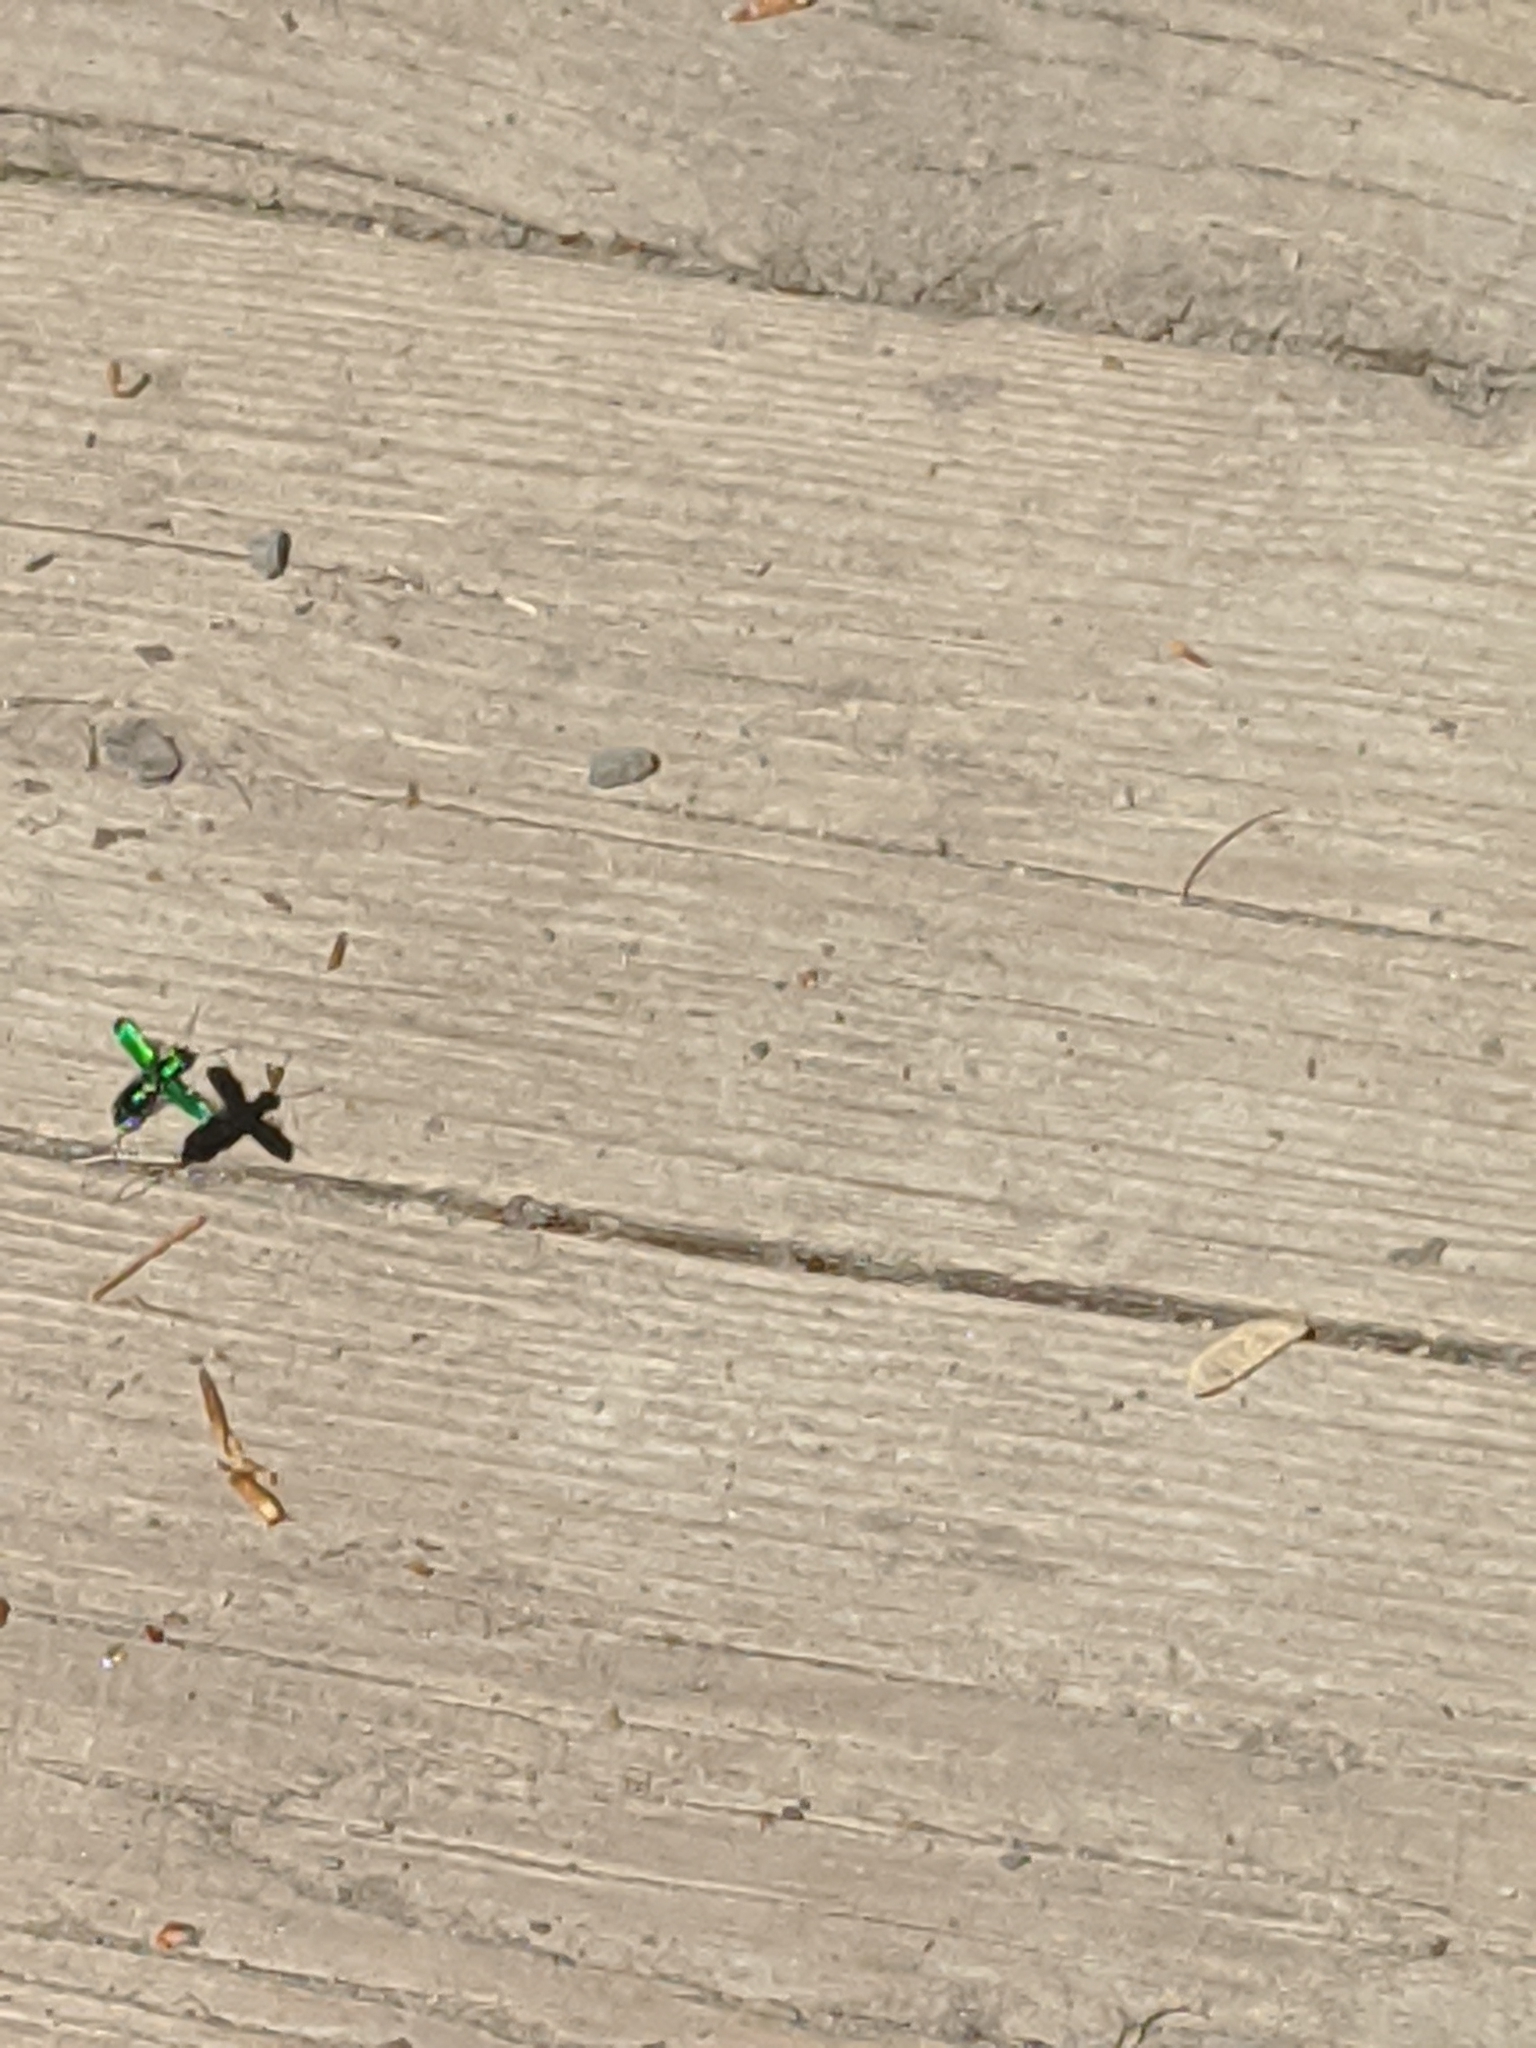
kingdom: Animalia
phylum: Arthropoda
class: Insecta
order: Coleoptera
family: Carabidae
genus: Cicindela
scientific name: Cicindela sexguttata
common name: Six-spotted tiger beetle
